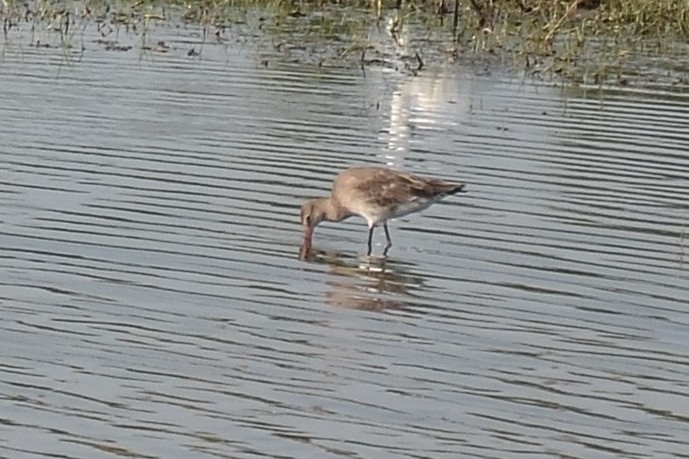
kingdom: Animalia
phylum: Chordata
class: Aves
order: Charadriiformes
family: Scolopacidae
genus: Limosa
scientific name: Limosa limosa
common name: Black-tailed godwit
